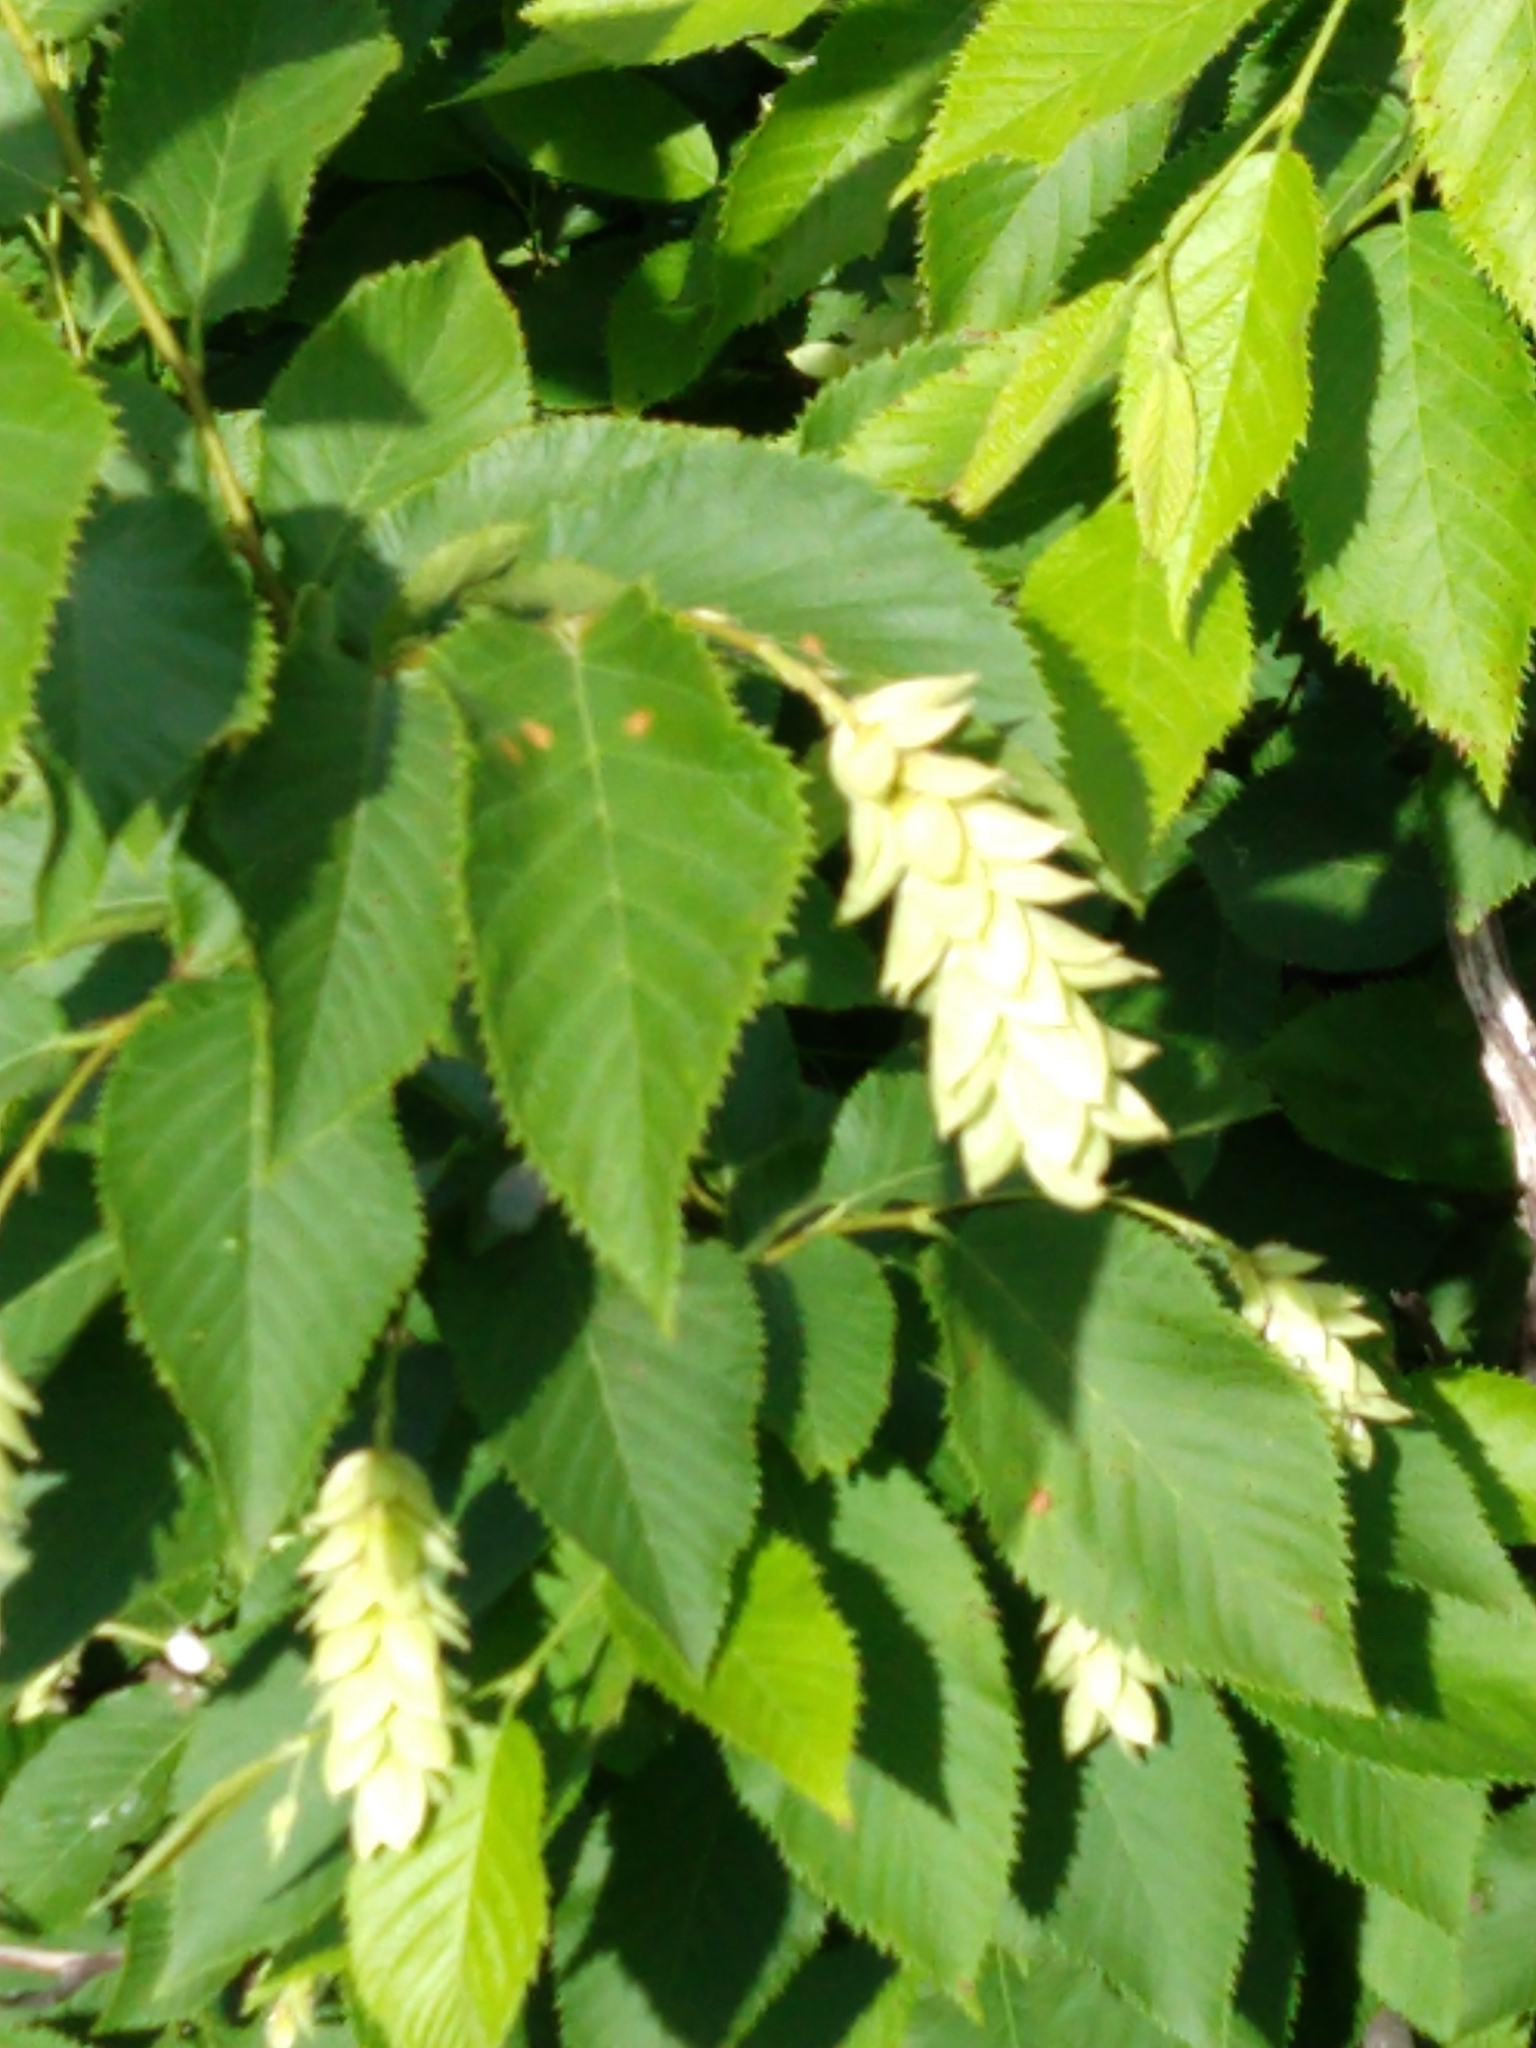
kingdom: Plantae
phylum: Tracheophyta
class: Magnoliopsida
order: Fagales
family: Betulaceae
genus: Ostrya
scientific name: Ostrya virginiana
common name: Ironwood
